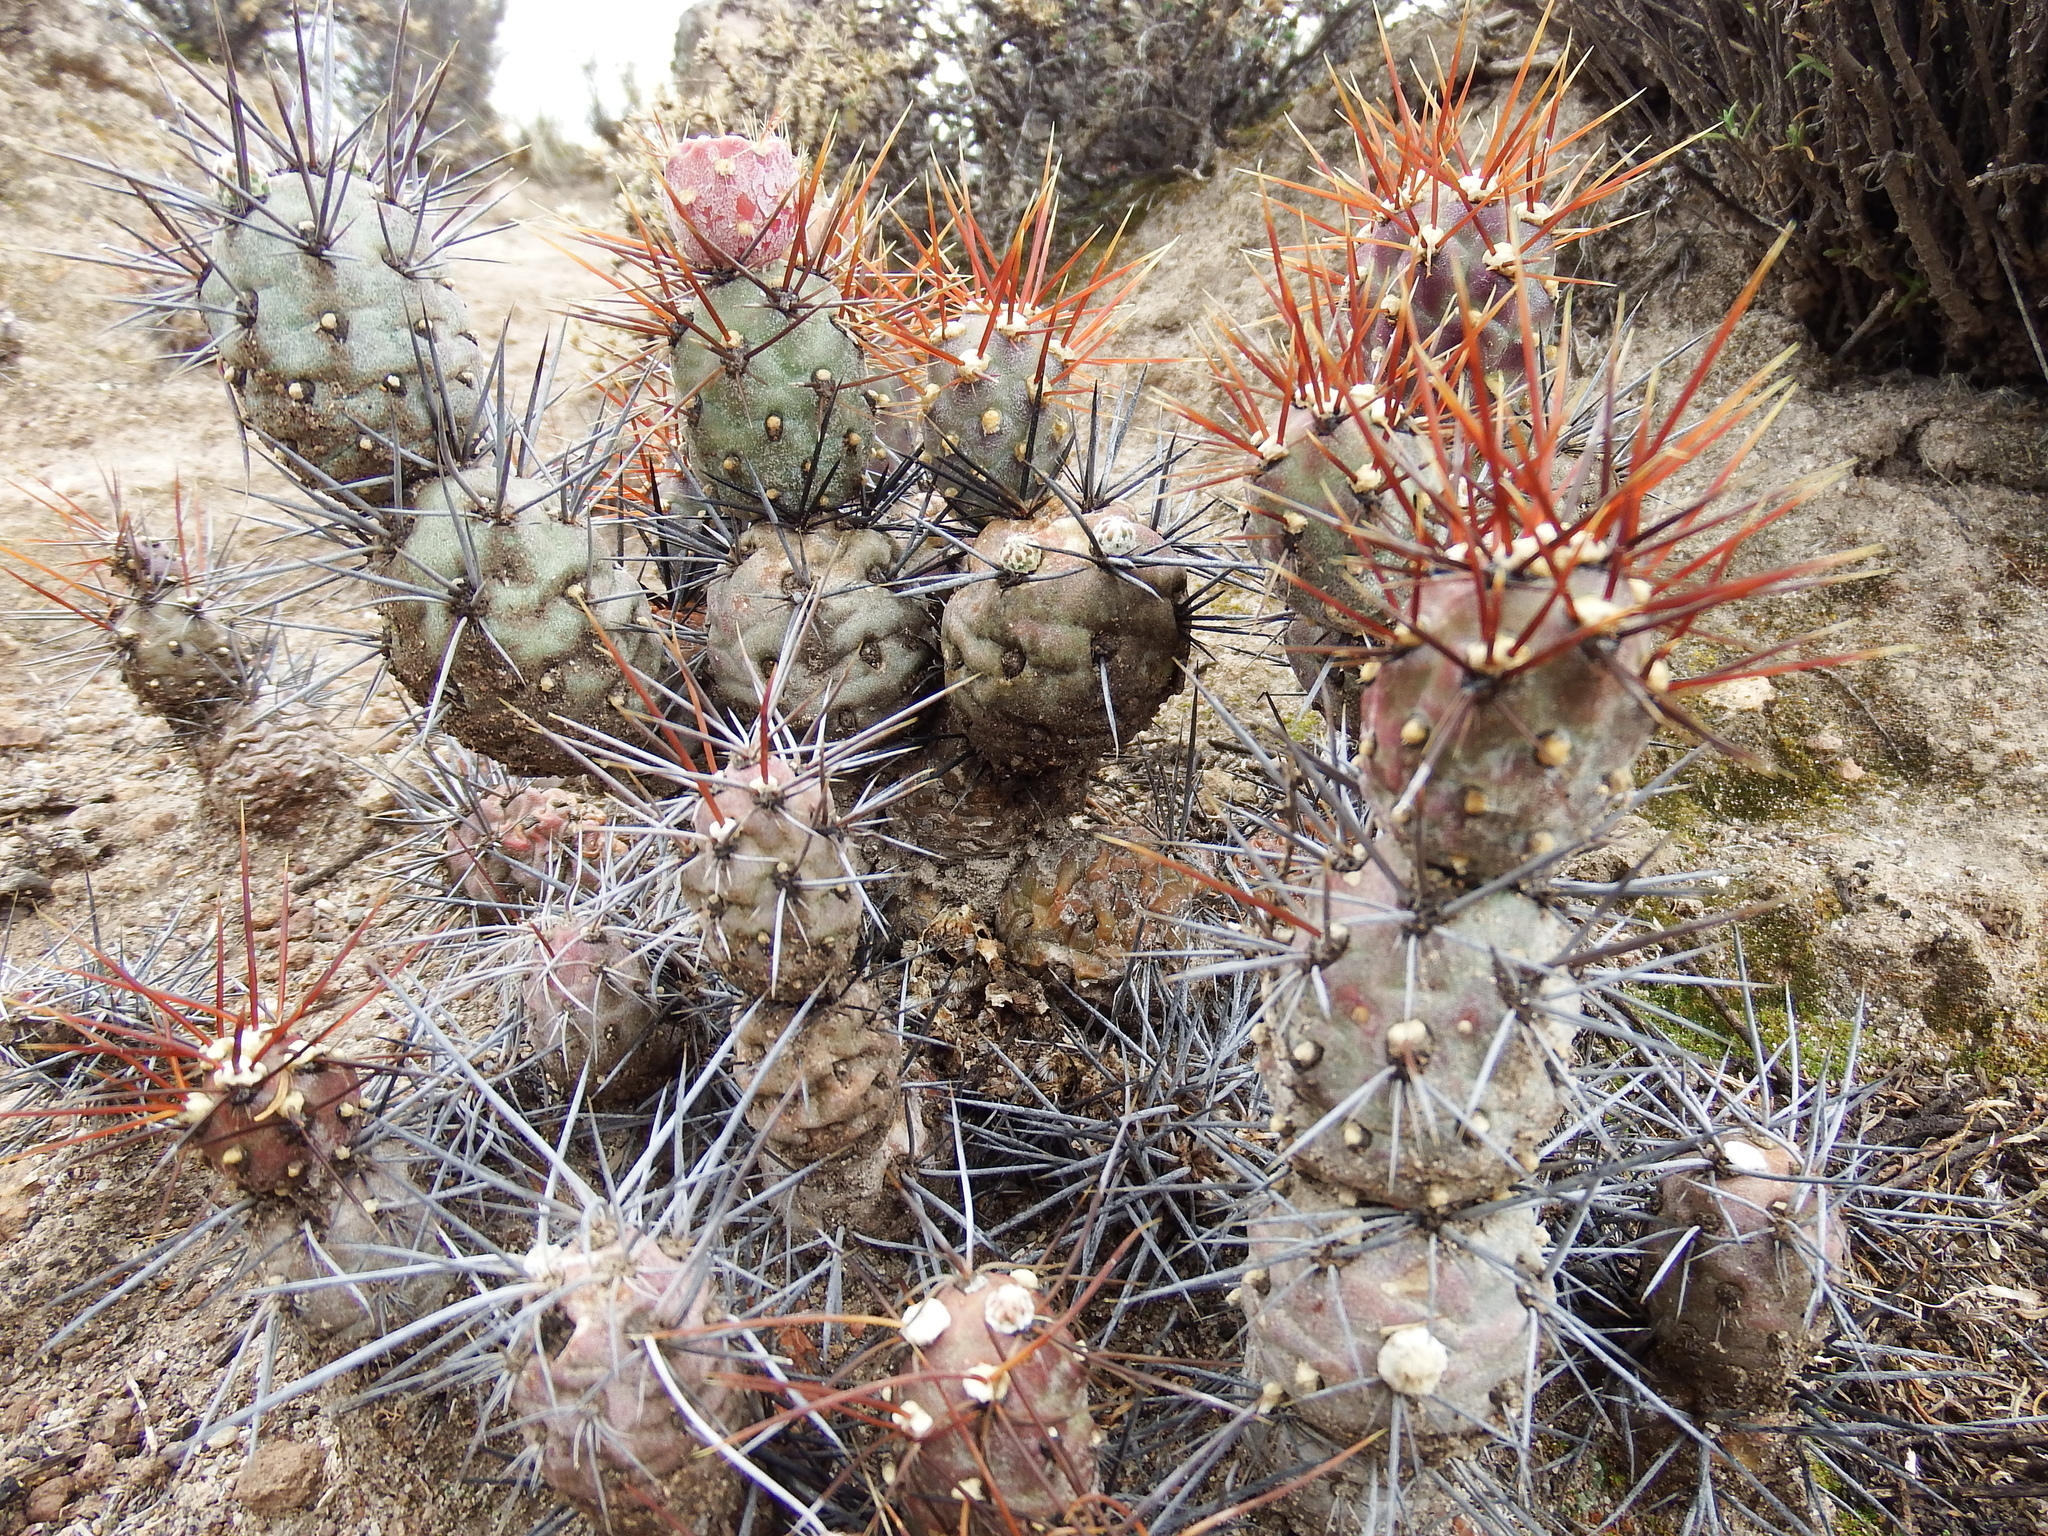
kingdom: Plantae
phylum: Tracheophyta
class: Magnoliopsida
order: Caryophyllales
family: Cactaceae
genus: Cumulopuntia
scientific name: Cumulopuntia leucophaea
